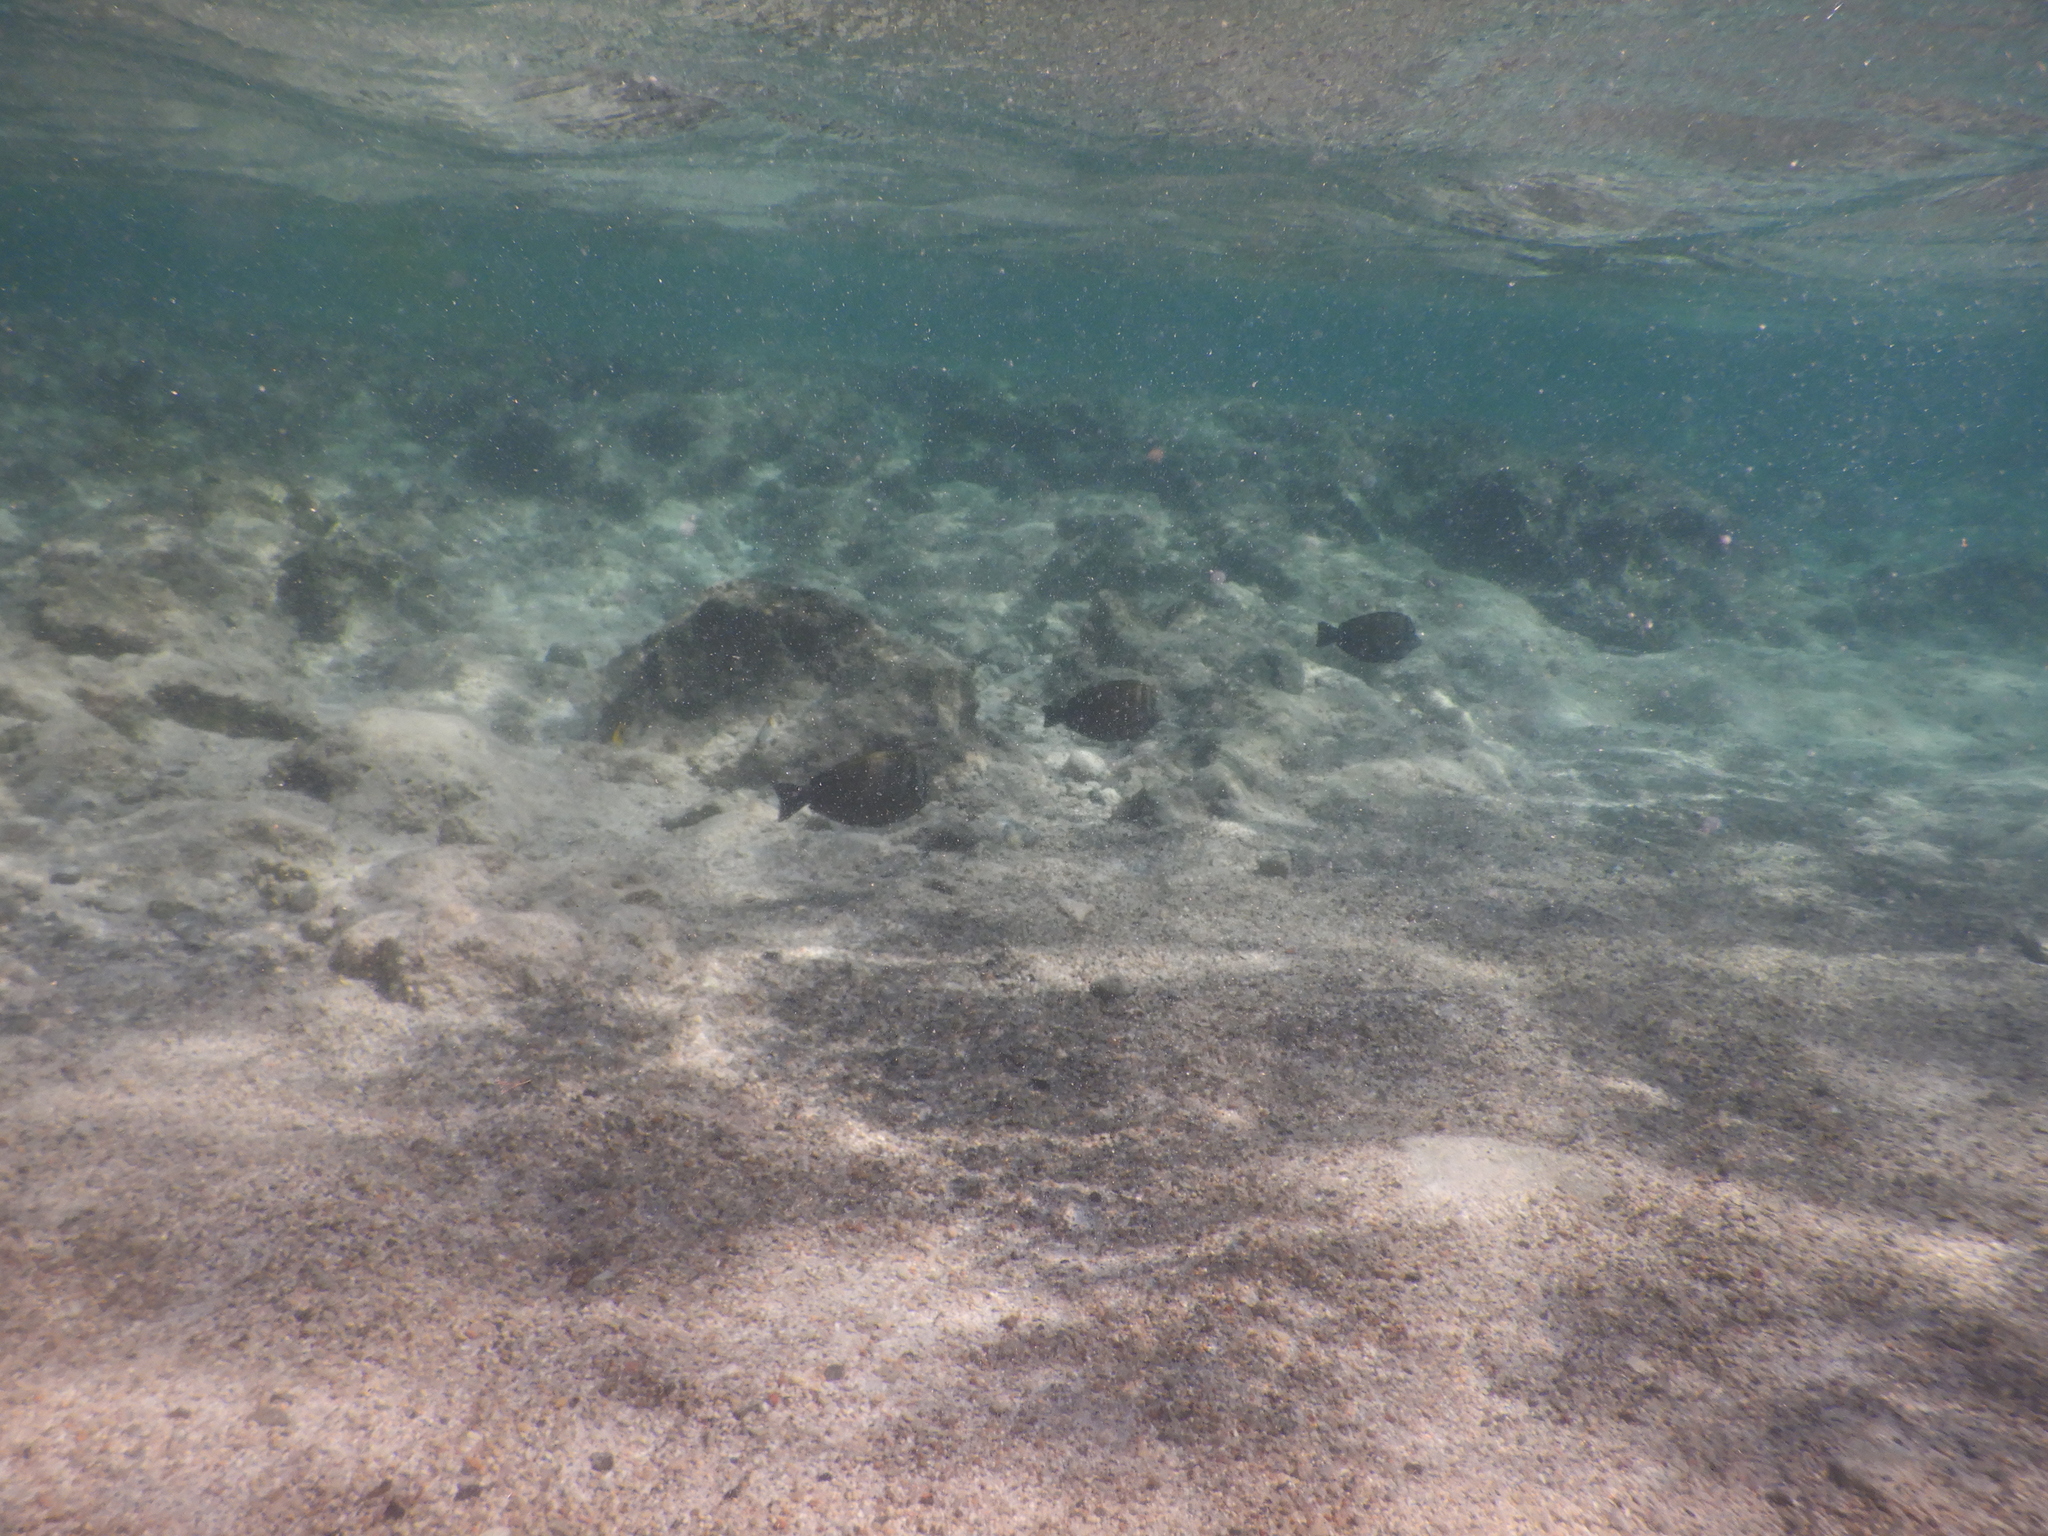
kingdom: Animalia
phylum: Chordata
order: Perciformes
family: Acanthuridae
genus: Zebrasoma
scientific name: Zebrasoma desjardinii
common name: Desjardin's sailfin tang
